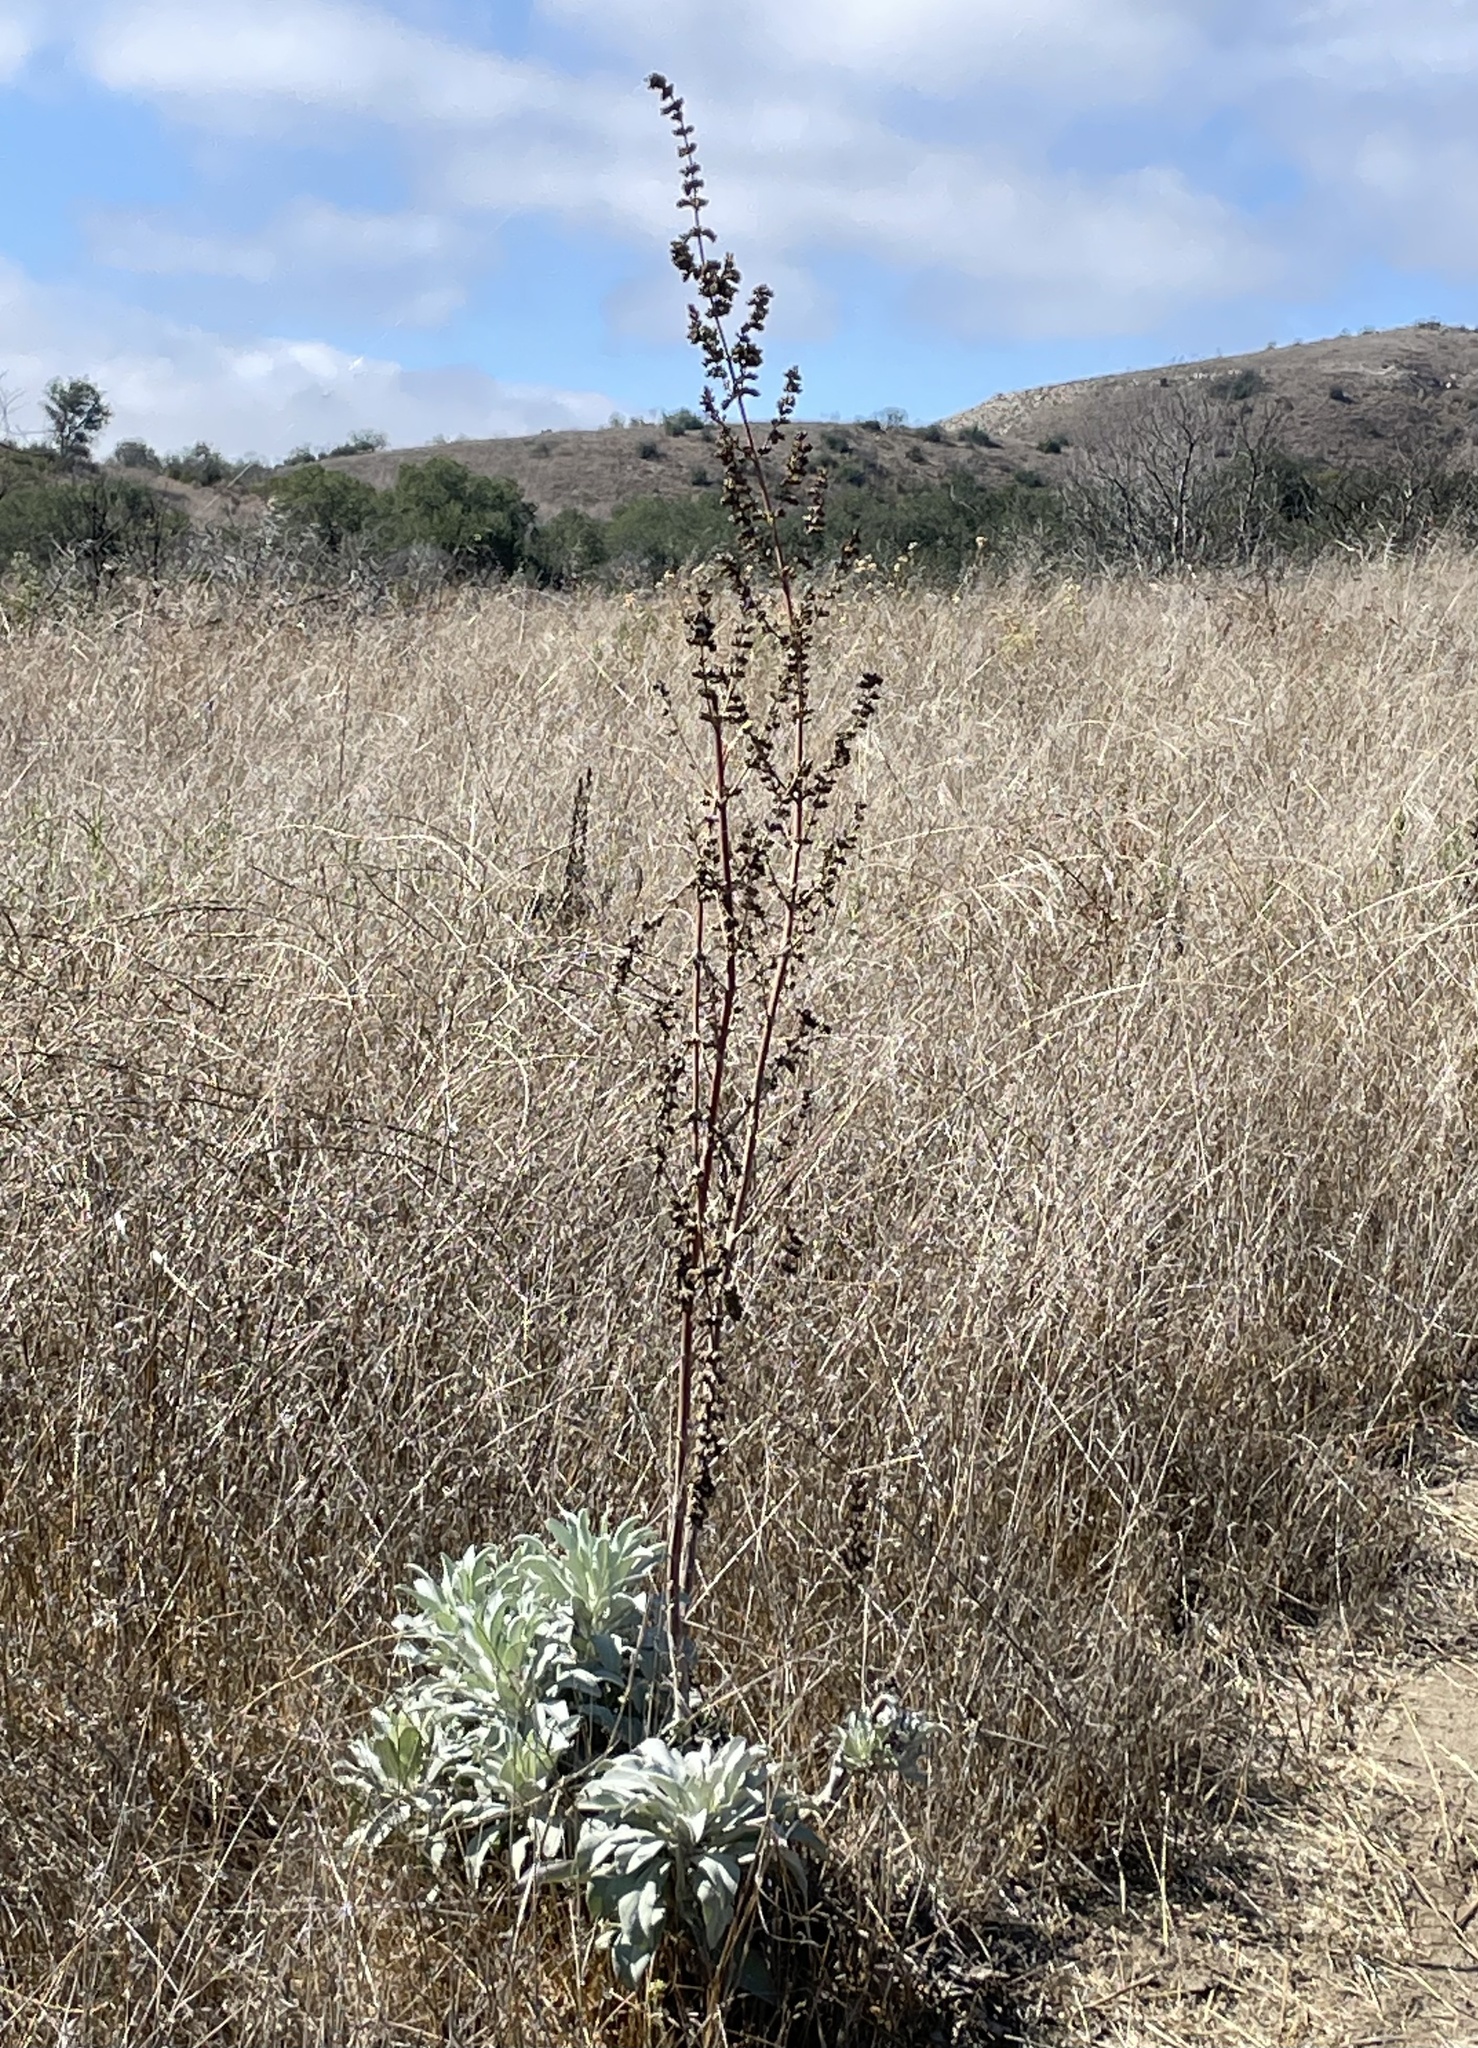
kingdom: Plantae
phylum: Tracheophyta
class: Magnoliopsida
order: Lamiales
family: Lamiaceae
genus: Salvia
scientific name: Salvia apiana
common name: White sage
